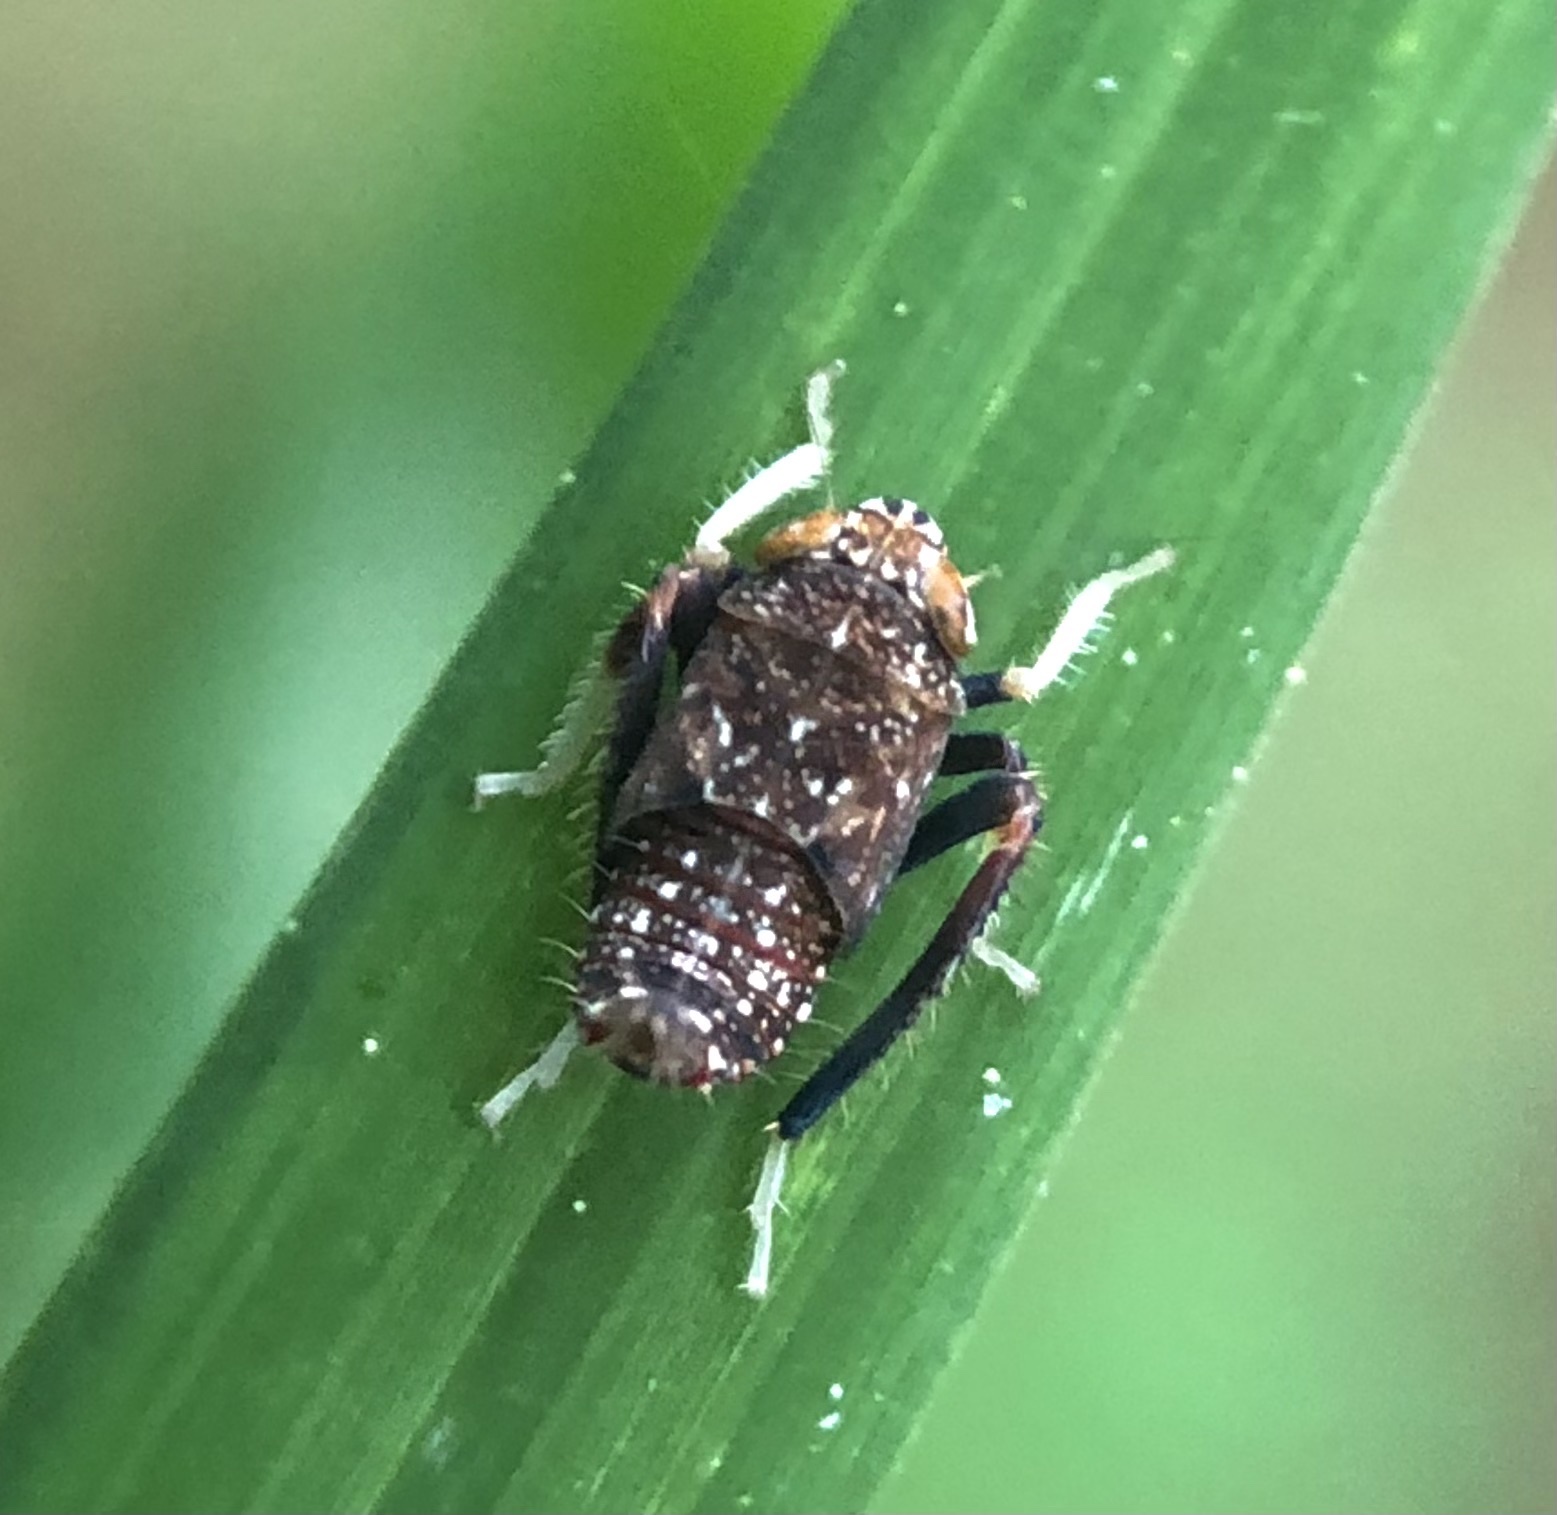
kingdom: Animalia
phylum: Arthropoda
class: Insecta
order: Hemiptera
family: Cicadellidae
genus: Orientus
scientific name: Orientus ishidae
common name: Japanese leafhopper
